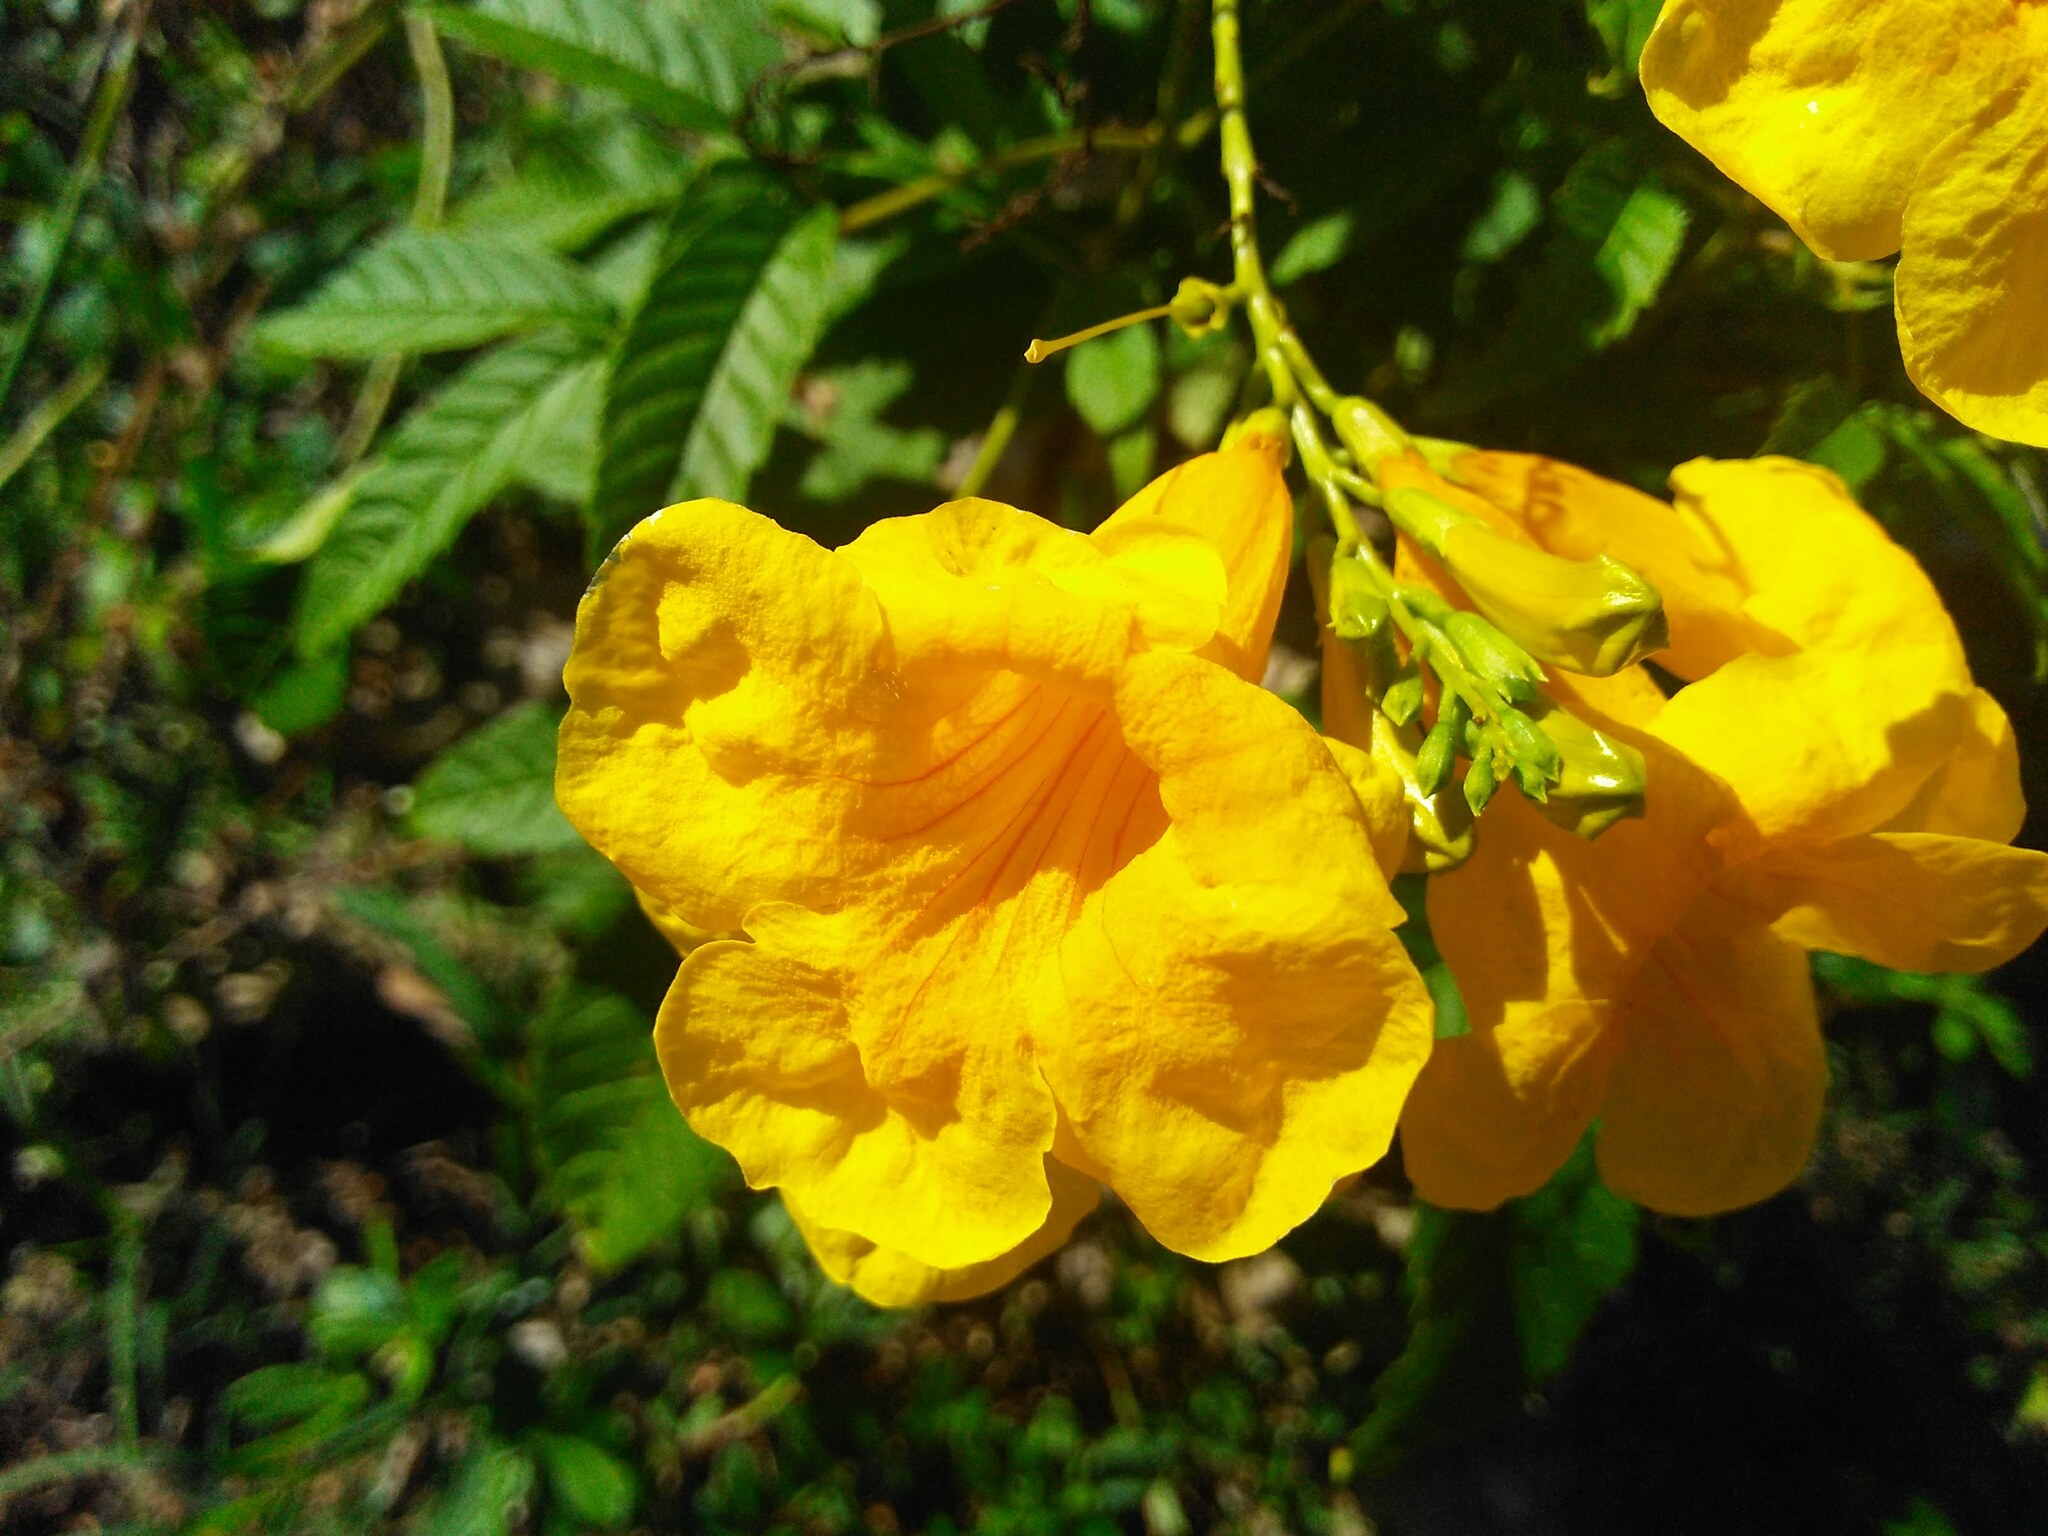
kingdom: Plantae
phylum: Tracheophyta
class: Magnoliopsida
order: Lamiales
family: Bignoniaceae
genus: Tecoma
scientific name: Tecoma stans
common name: Yellow trumpetbush
